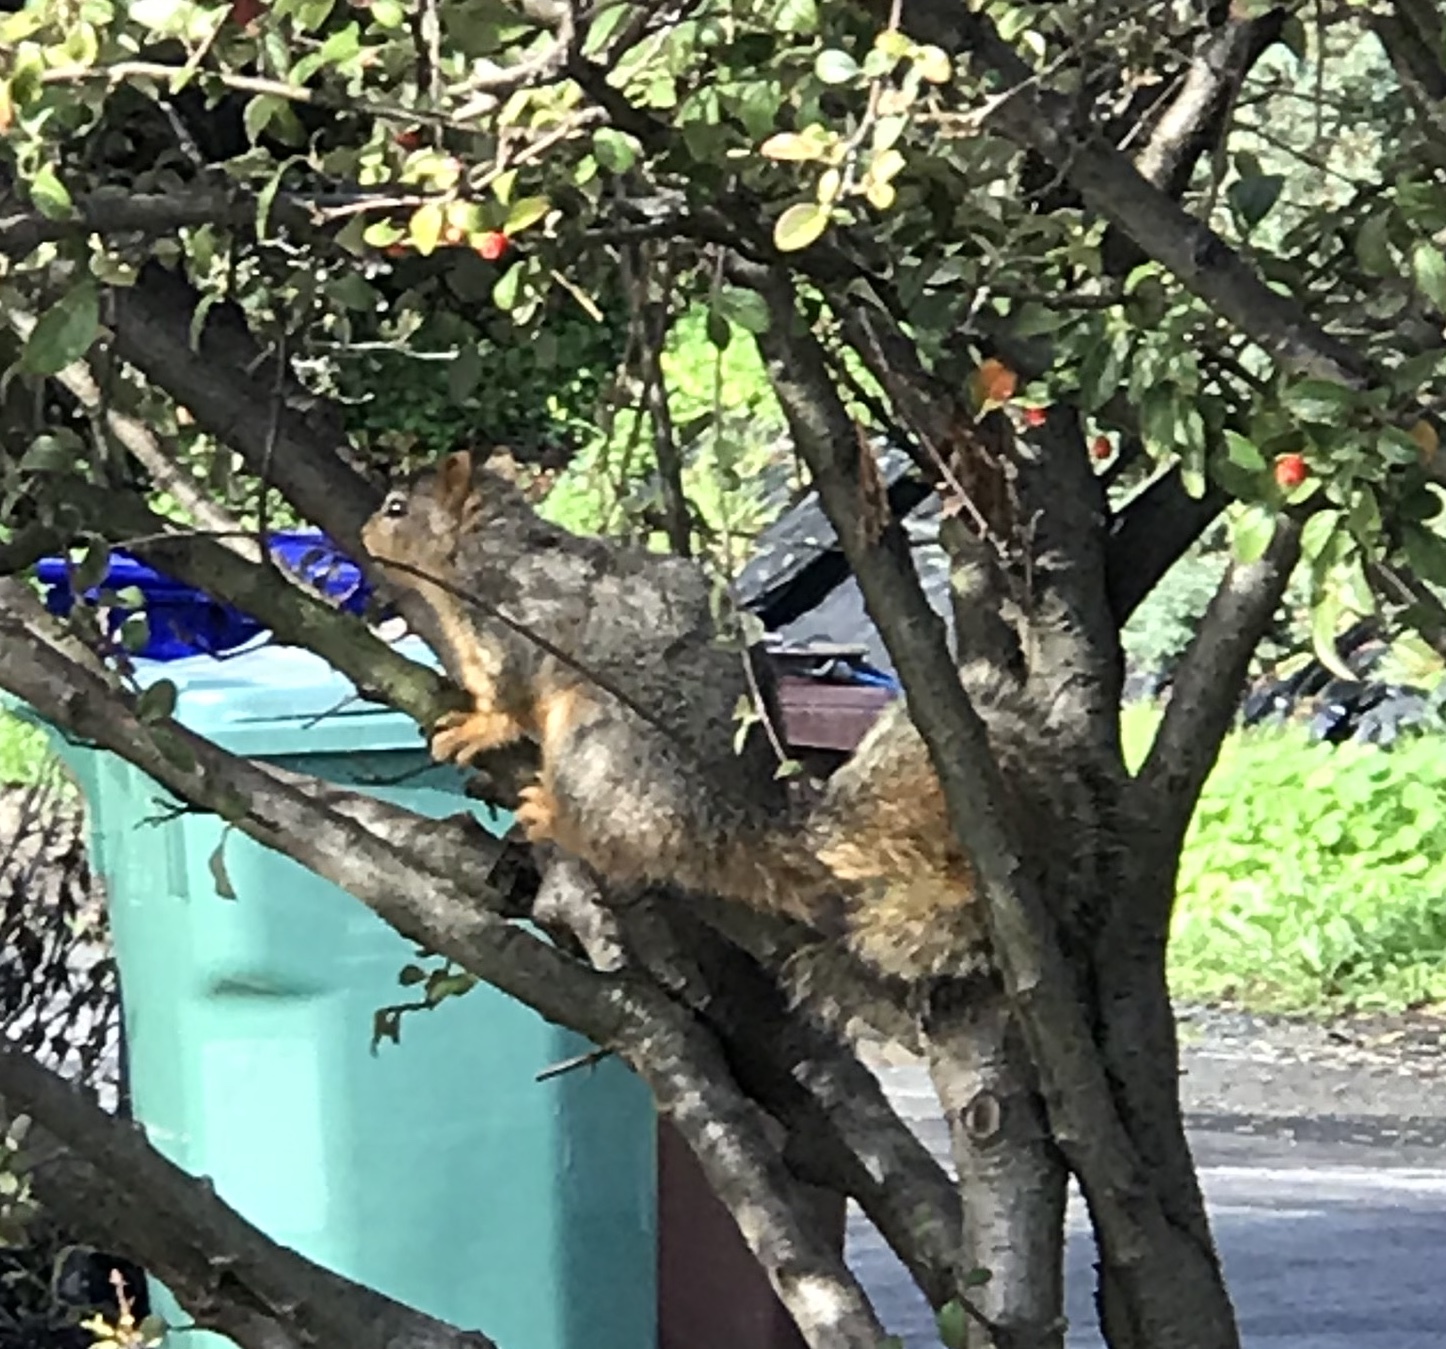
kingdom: Animalia
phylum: Chordata
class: Mammalia
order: Rodentia
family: Sciuridae
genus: Sciurus
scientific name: Sciurus niger
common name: Fox squirrel
